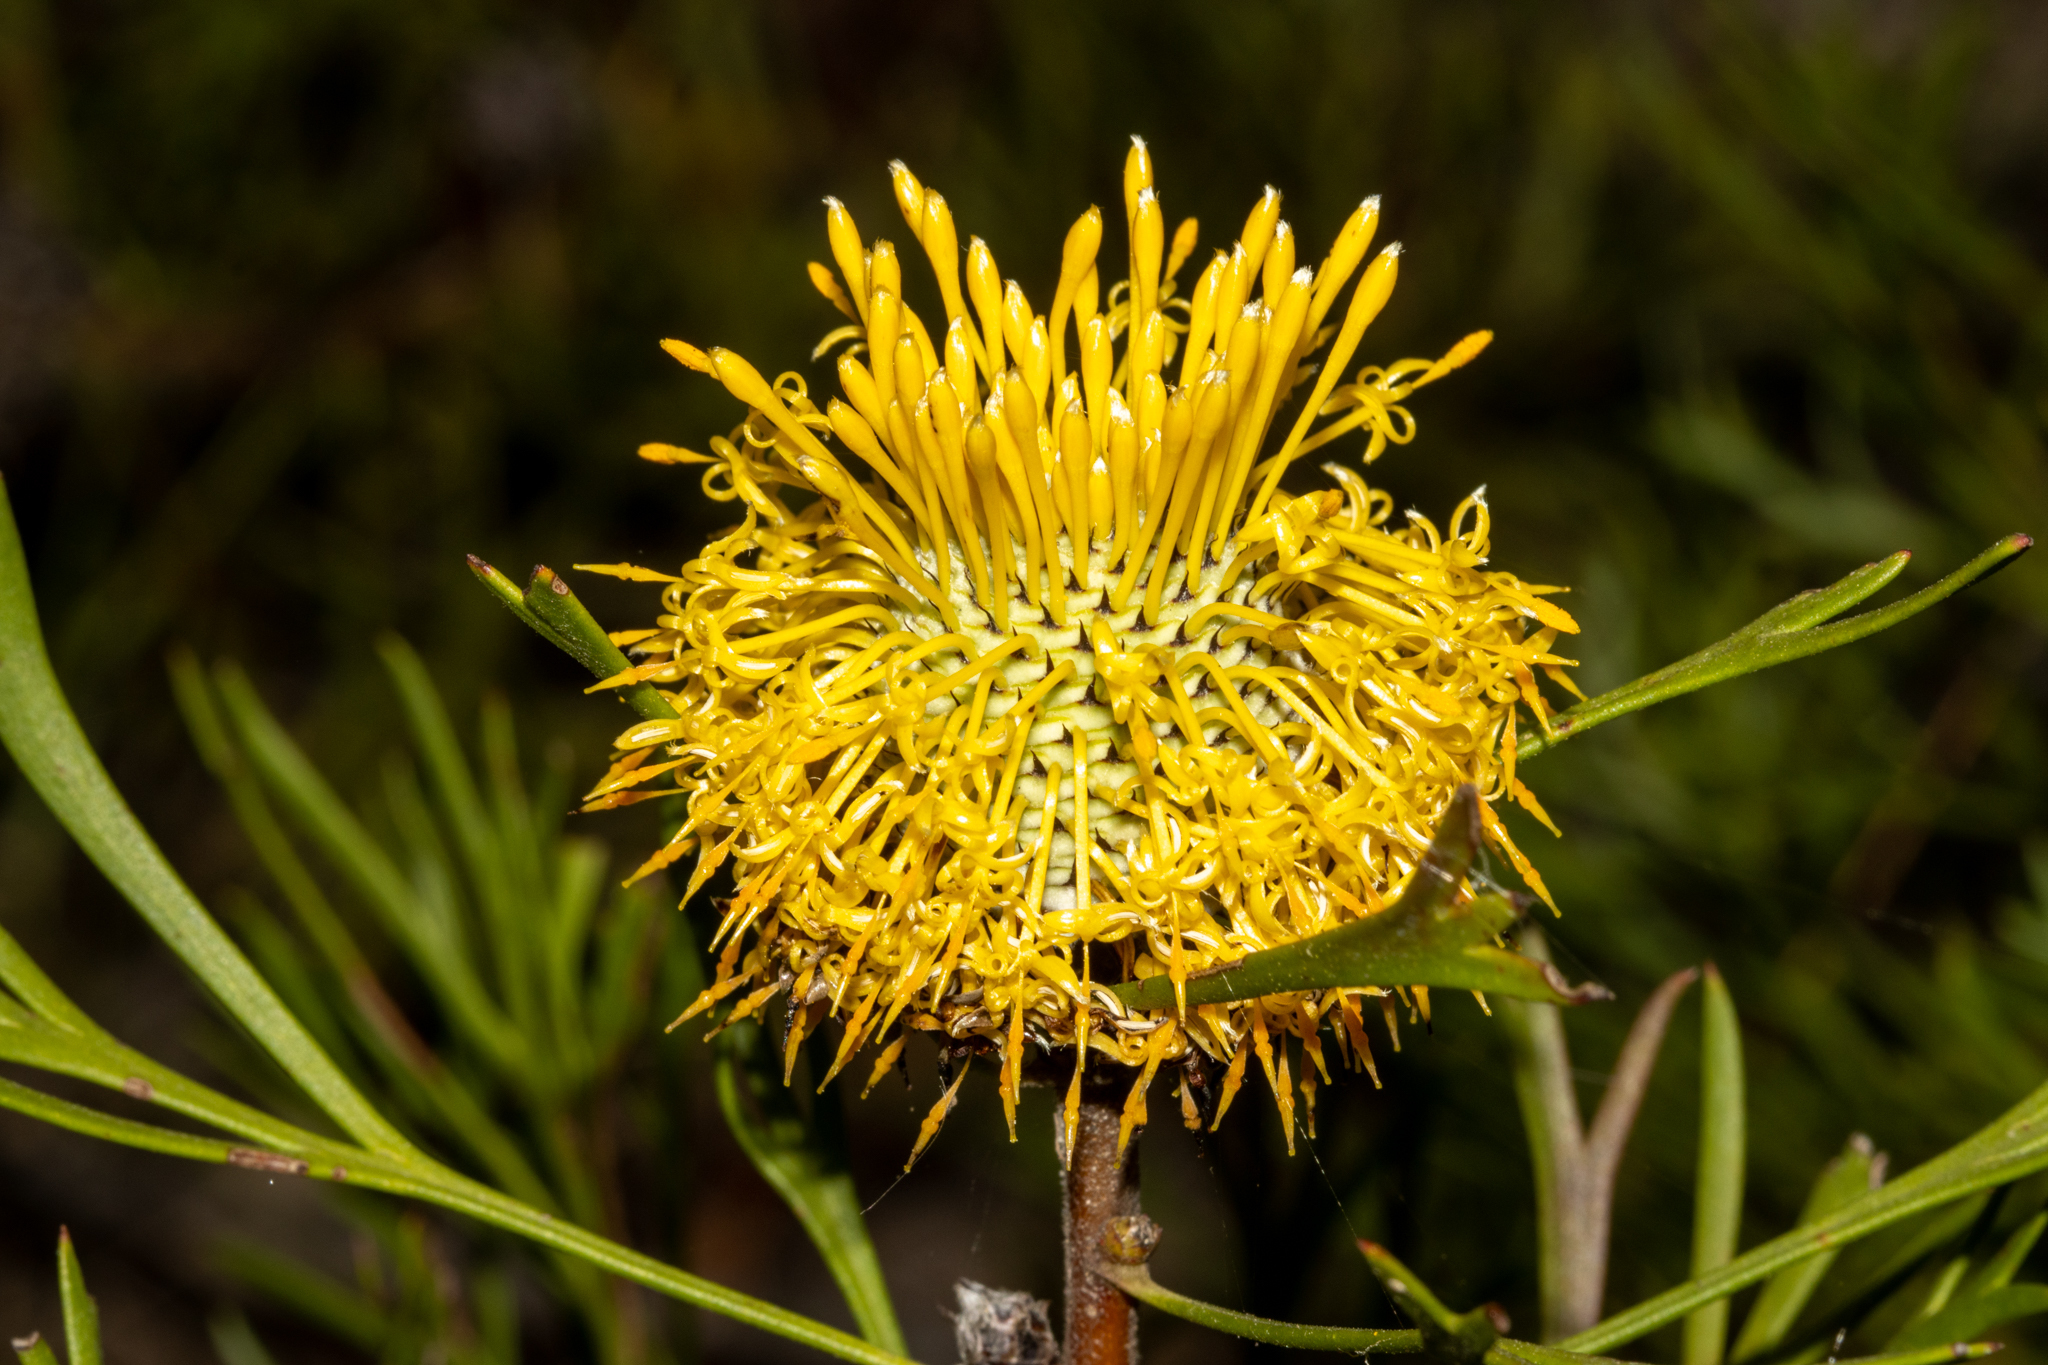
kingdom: Plantae
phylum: Tracheophyta
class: Magnoliopsida
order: Proteales
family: Proteaceae
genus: Isopogon
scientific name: Isopogon anemonifolius
